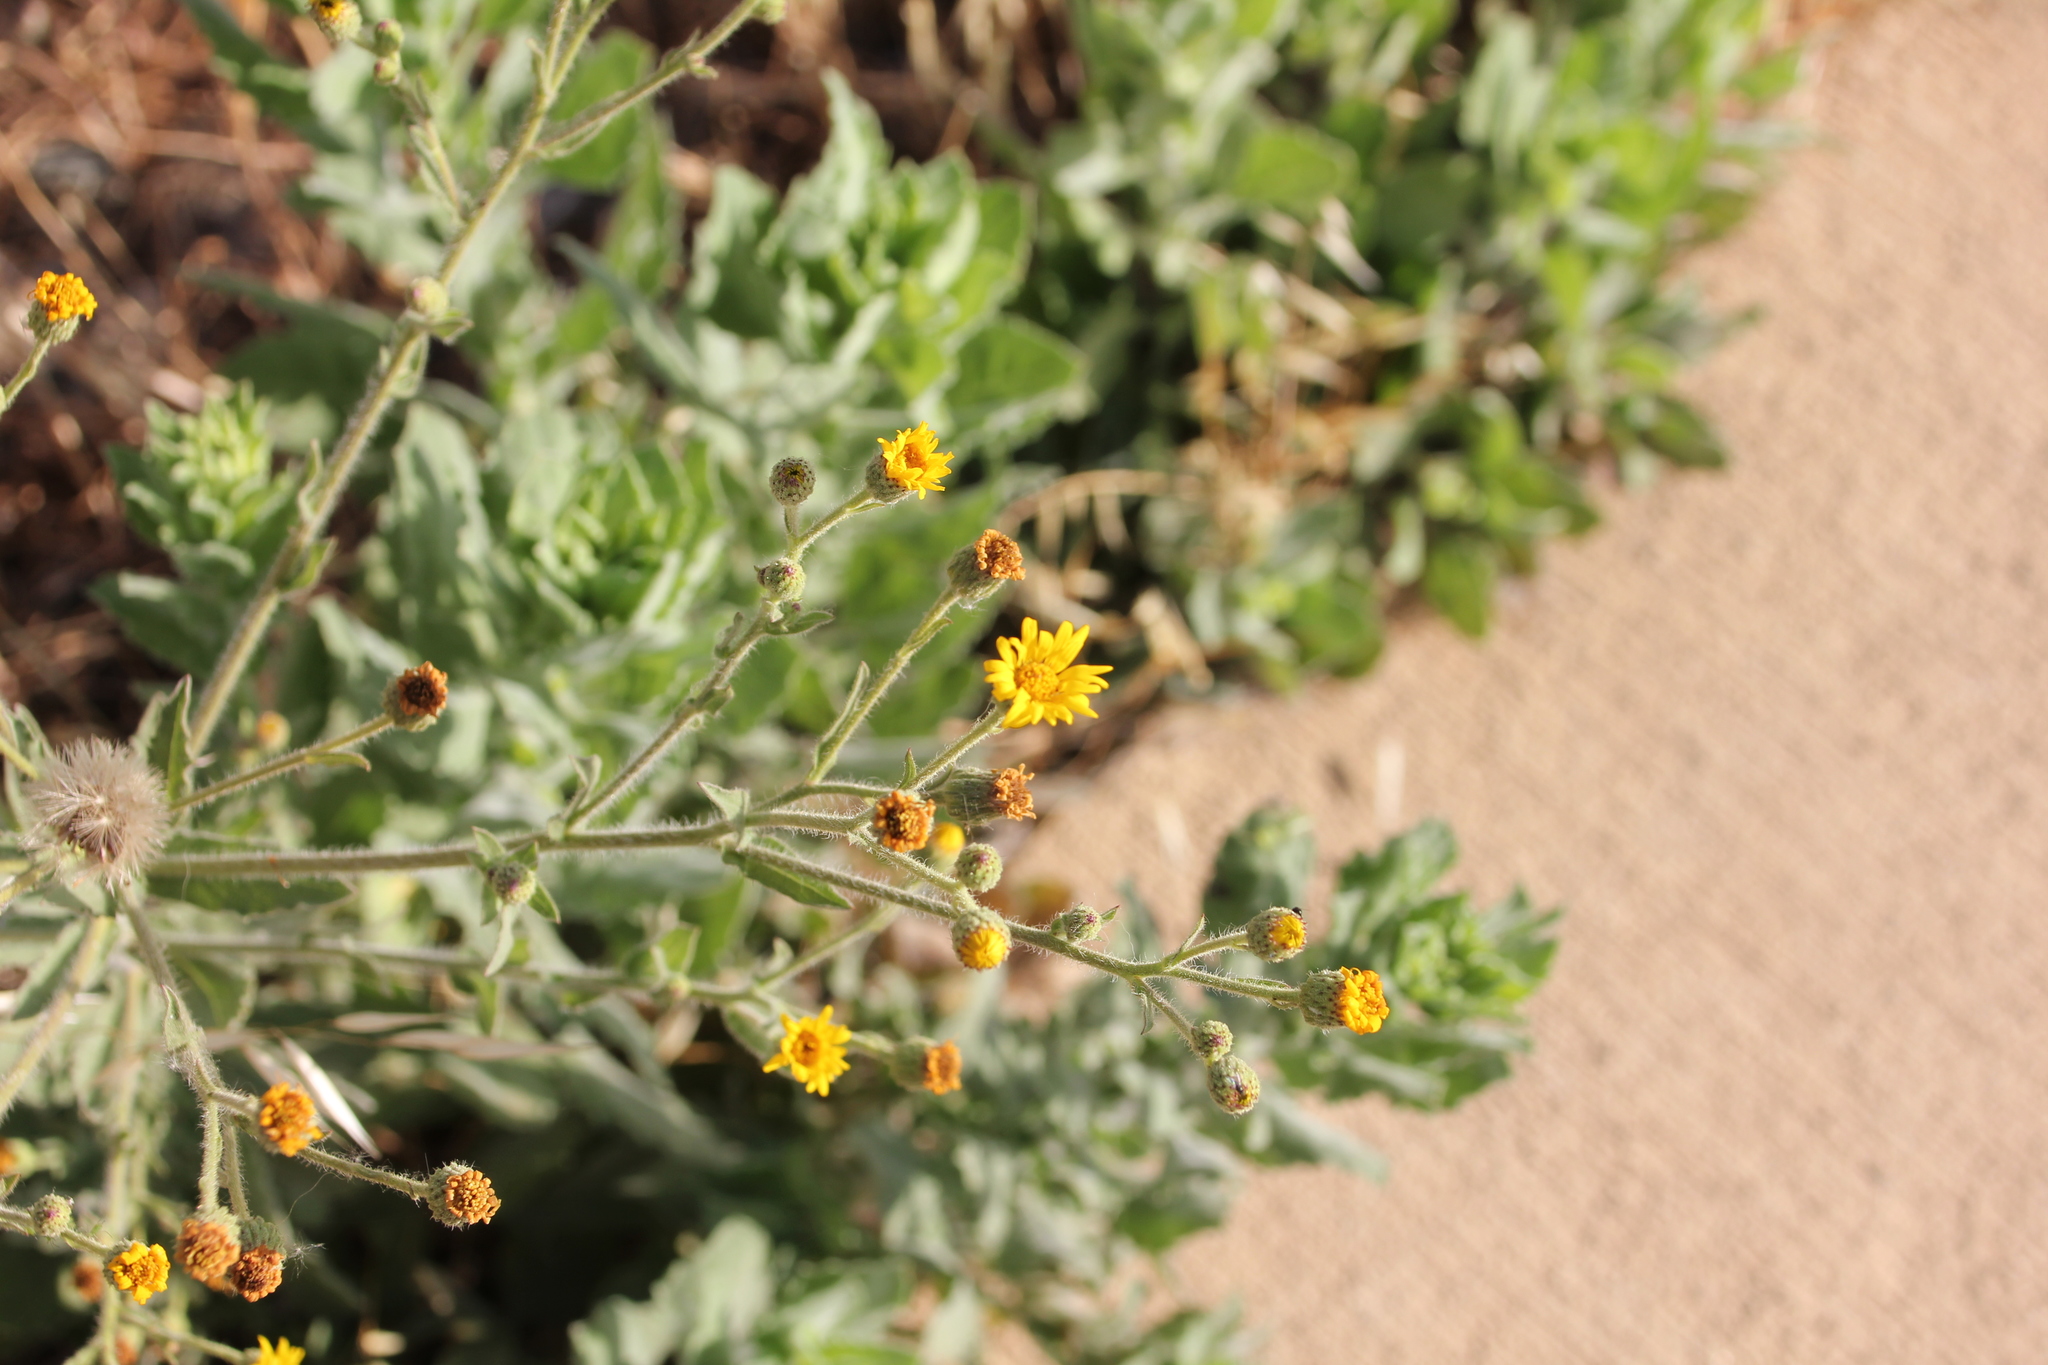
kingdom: Plantae
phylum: Tracheophyta
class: Magnoliopsida
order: Asterales
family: Asteraceae
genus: Heterotheca
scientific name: Heterotheca grandiflora
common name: Telegraphweed
